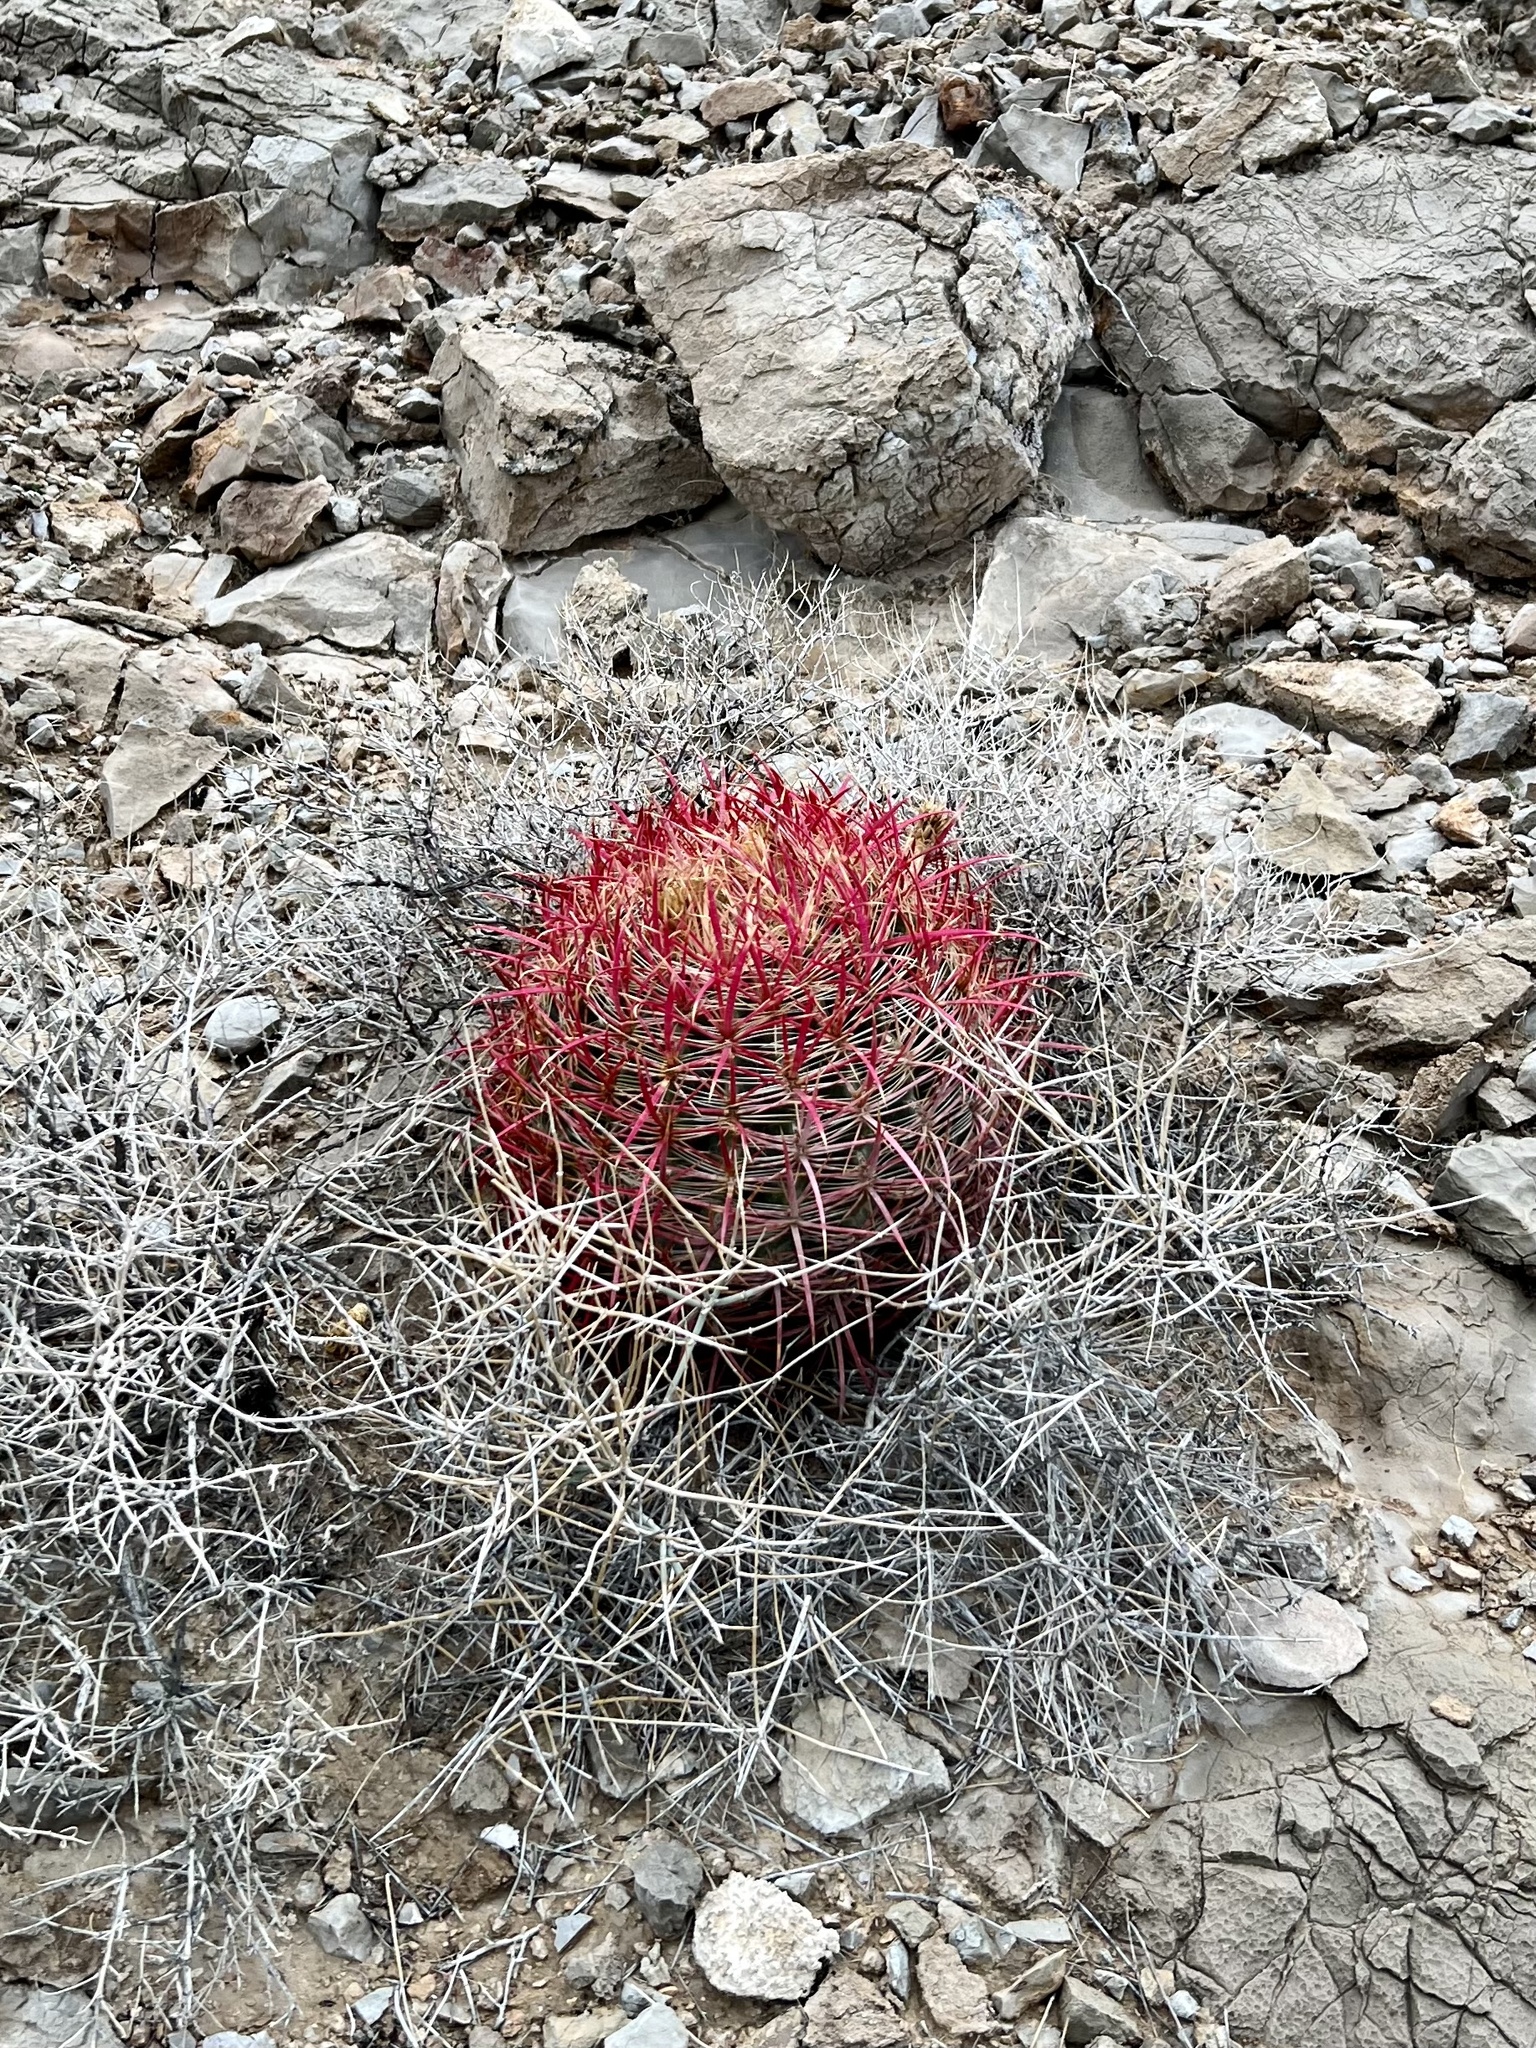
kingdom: Plantae
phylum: Tracheophyta
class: Magnoliopsida
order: Caryophyllales
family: Cactaceae
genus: Ferocactus
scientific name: Ferocactus cylindraceus
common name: California barrel cactus
